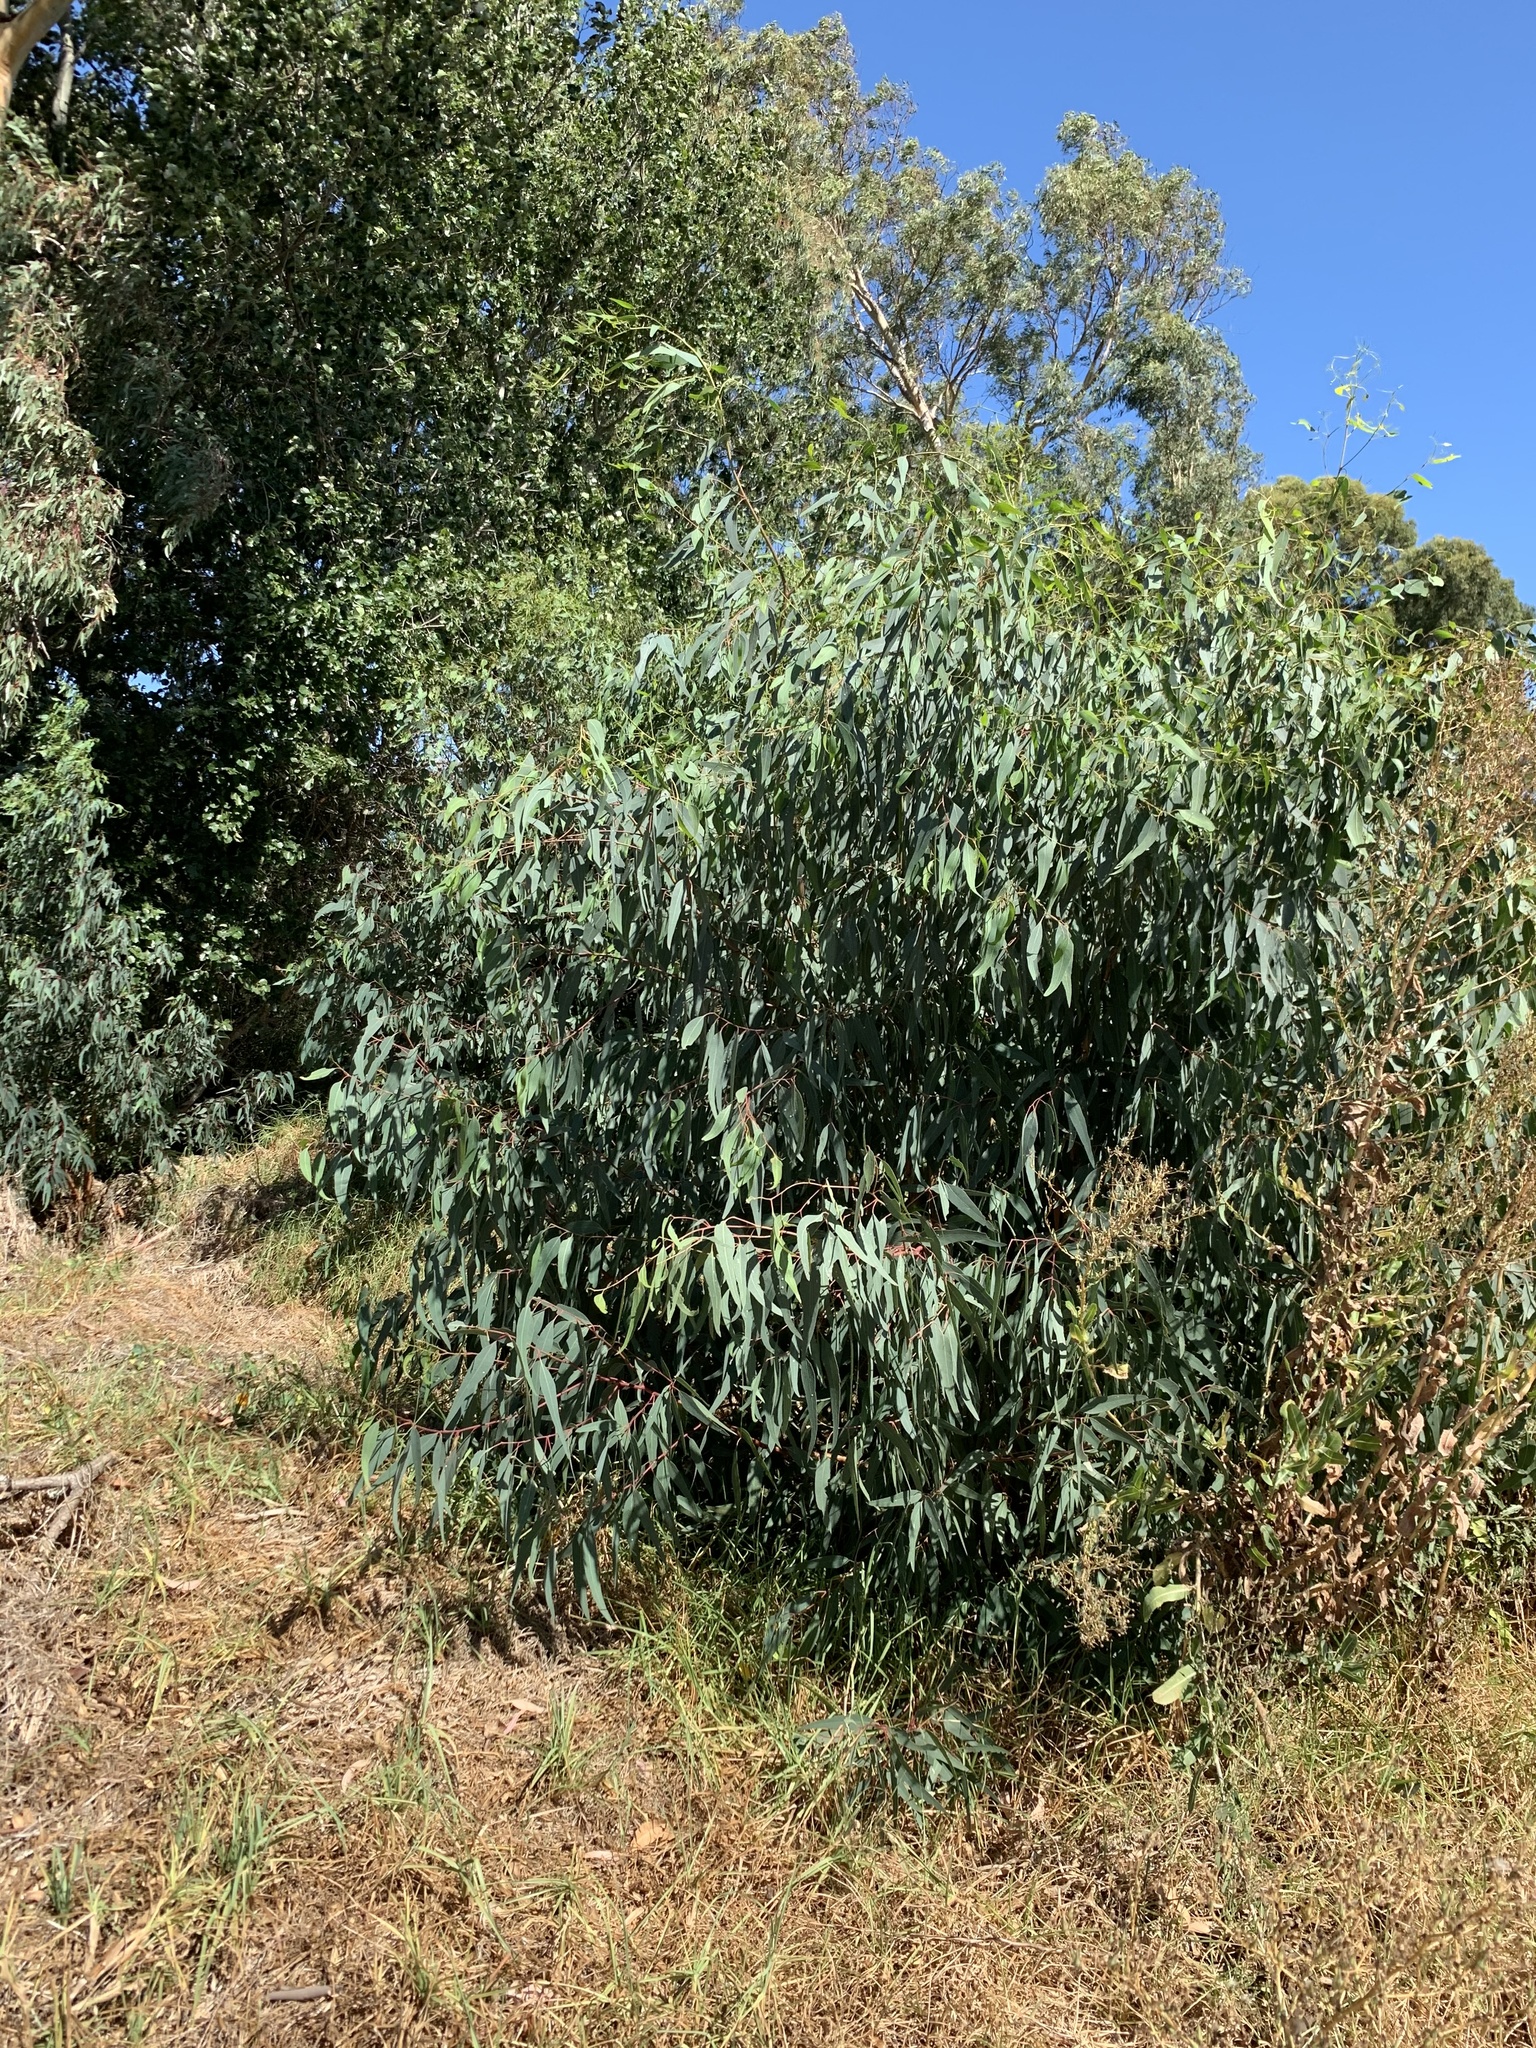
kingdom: Plantae
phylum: Tracheophyta
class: Magnoliopsida
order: Myrtales
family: Myrtaceae
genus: Eucalyptus
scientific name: Eucalyptus camaldulensis
